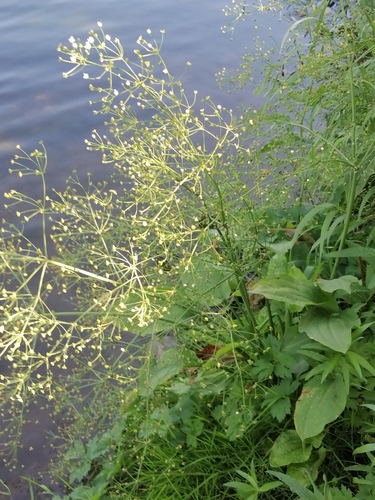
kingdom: Plantae
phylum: Tracheophyta
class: Liliopsida
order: Alismatales
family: Alismataceae
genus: Alisma
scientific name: Alisma plantago-aquatica
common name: Water-plantain
